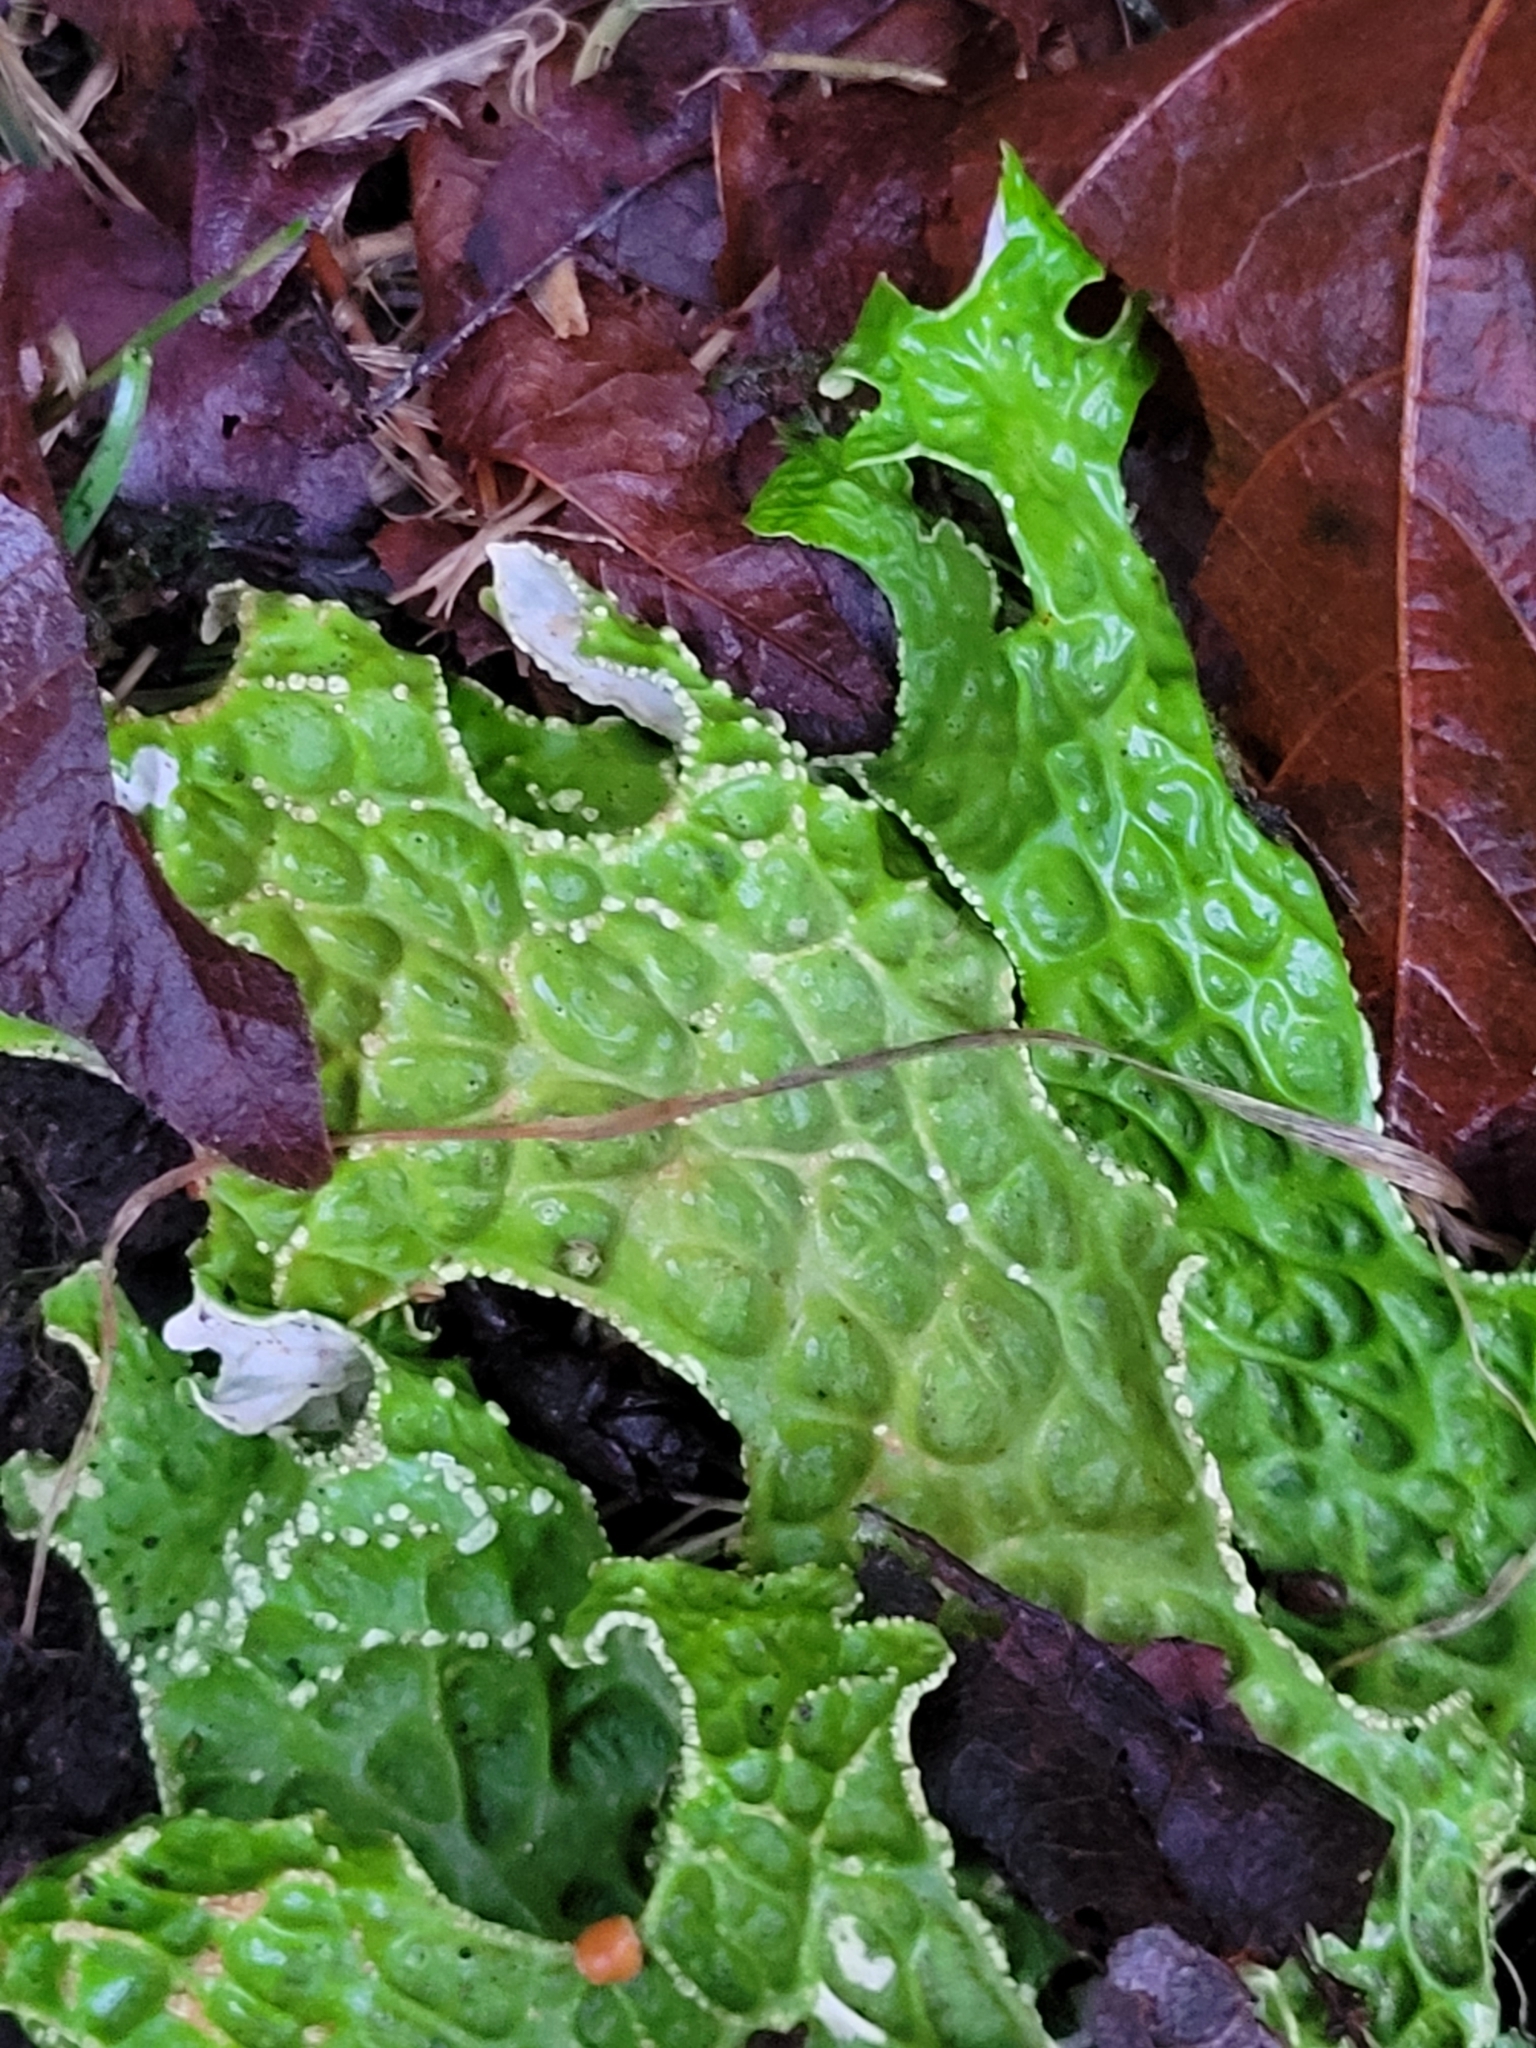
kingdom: Fungi
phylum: Ascomycota
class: Lecanoromycetes
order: Peltigerales
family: Lobariaceae
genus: Lobaria
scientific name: Lobaria pulmonaria
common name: Lungwort
